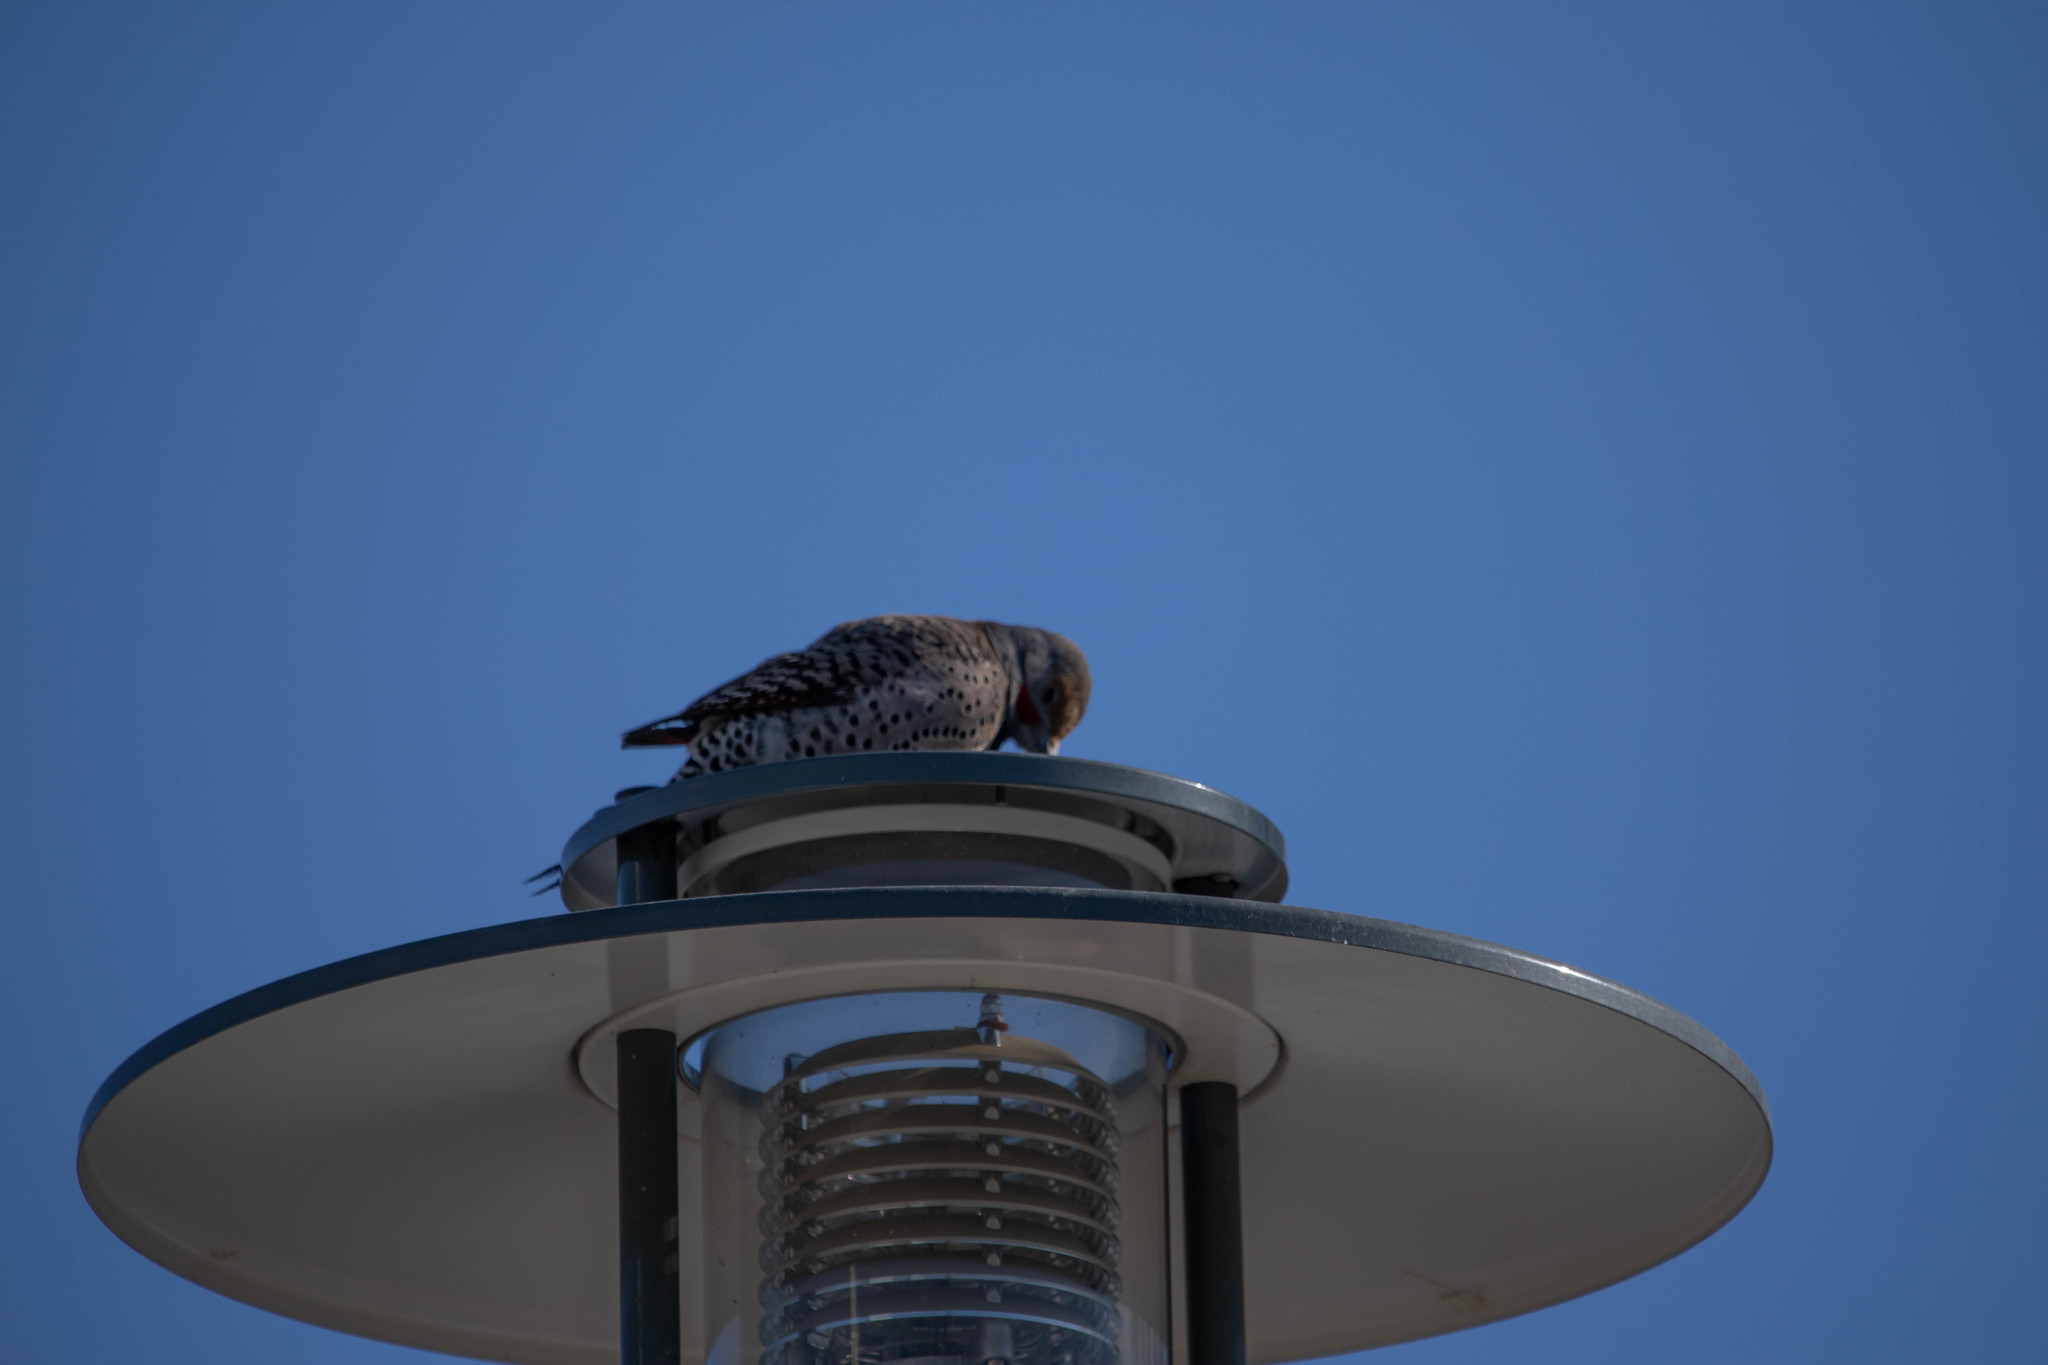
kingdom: Animalia
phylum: Chordata
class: Aves
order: Piciformes
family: Picidae
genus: Colaptes
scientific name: Colaptes auratus
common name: Northern flicker
